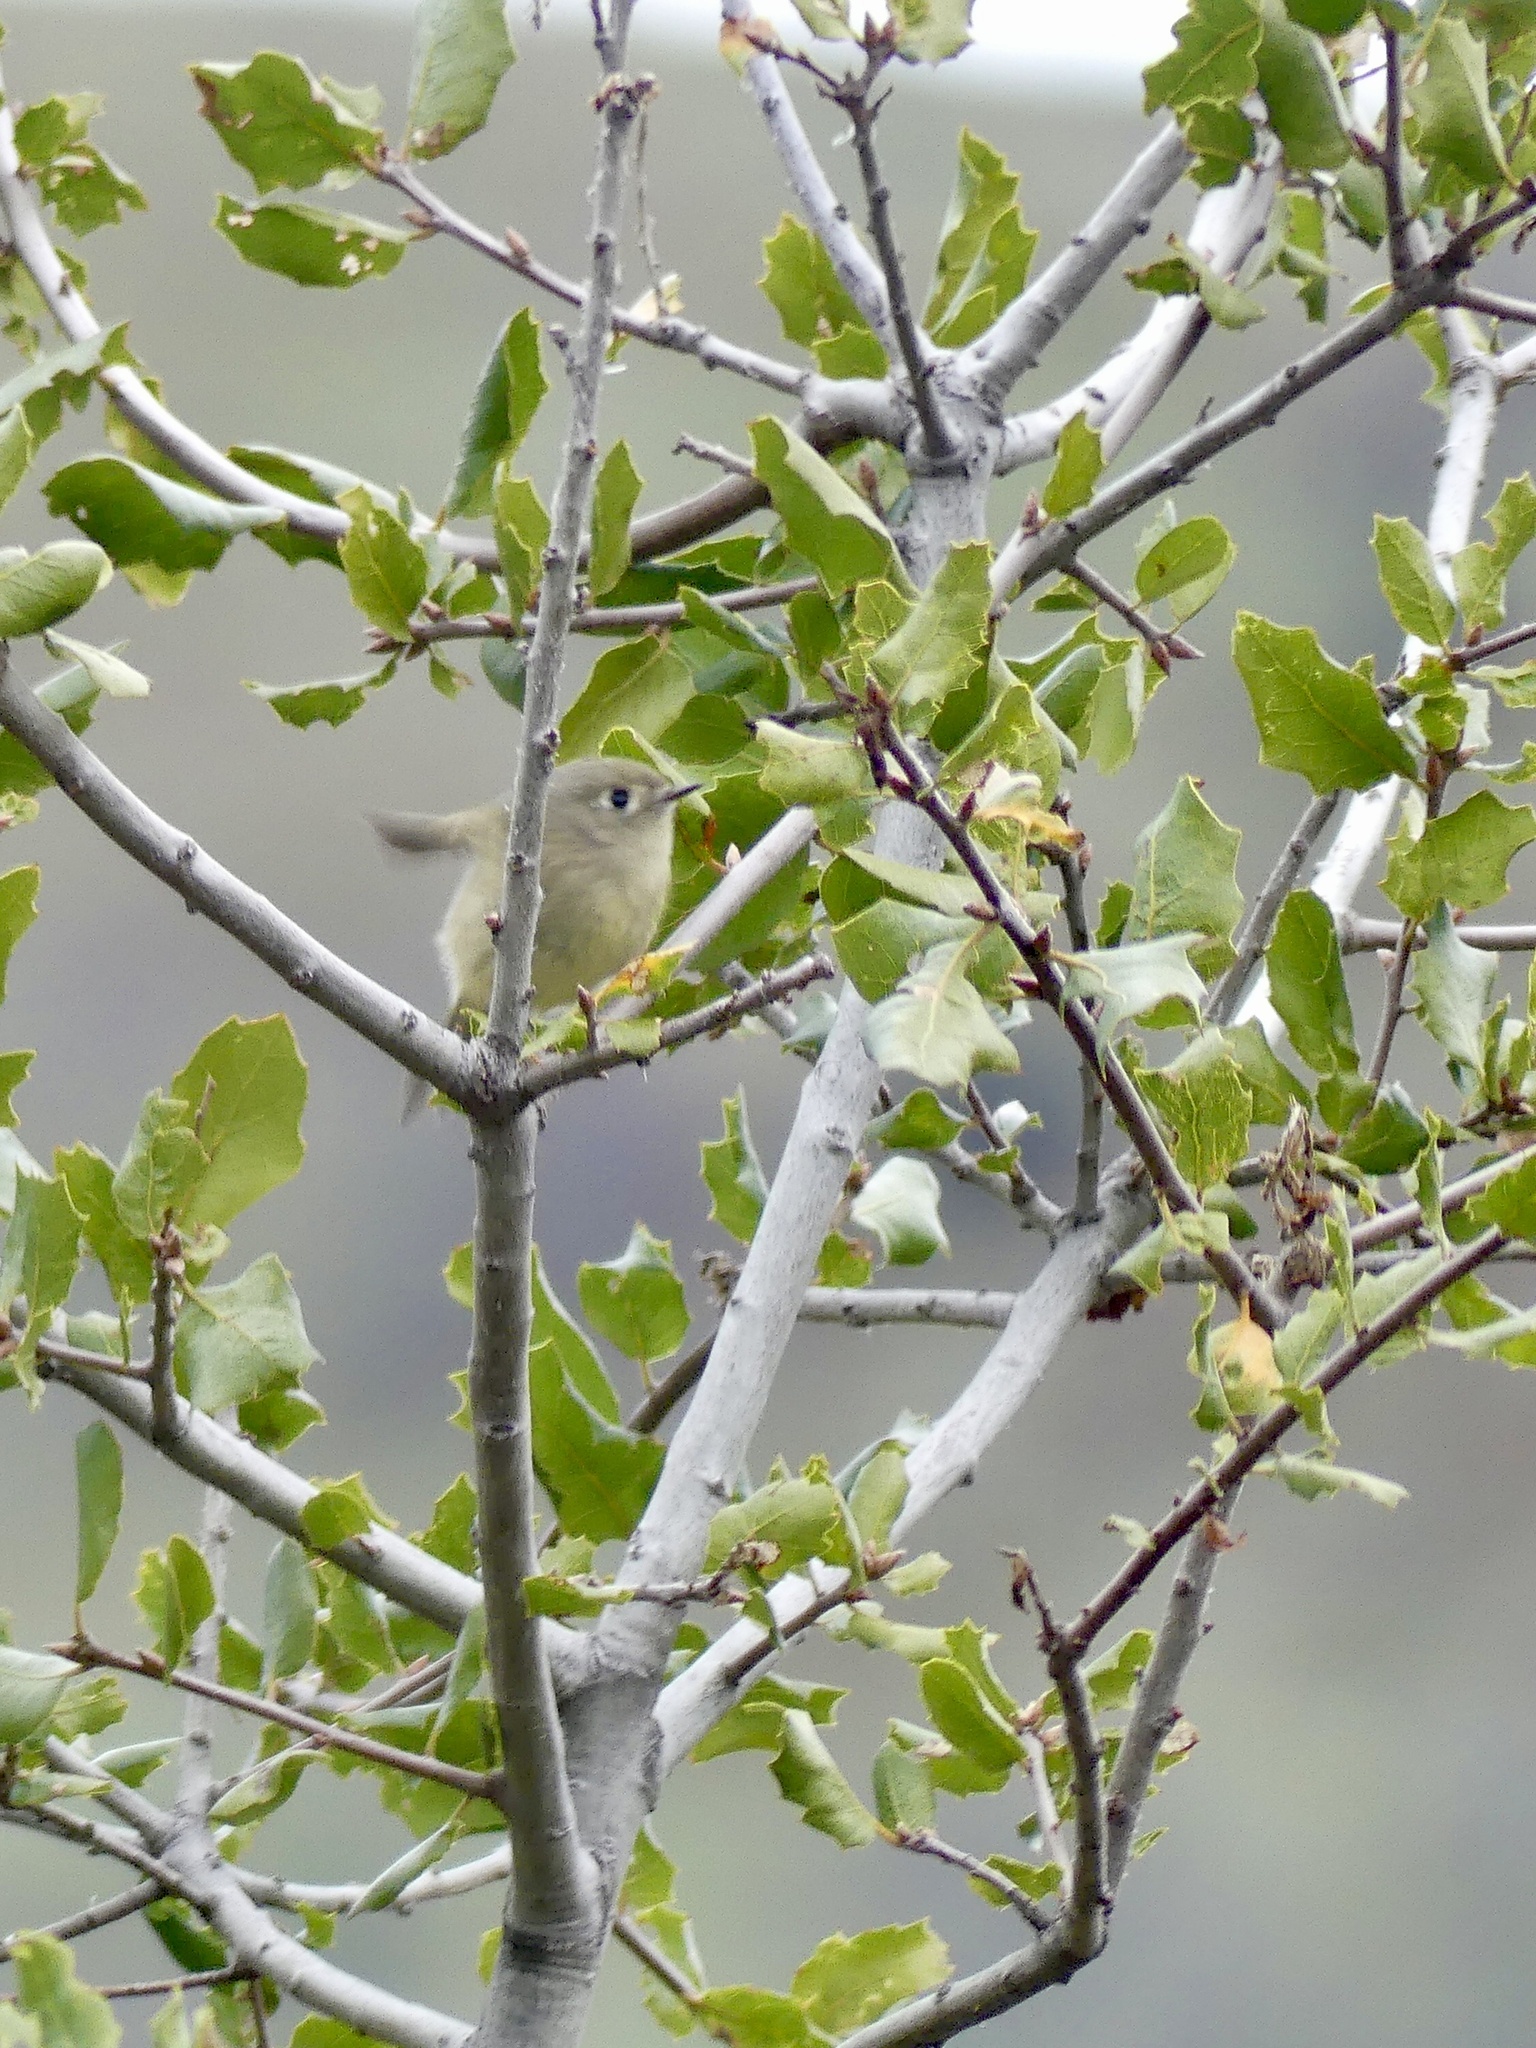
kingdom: Animalia
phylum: Chordata
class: Aves
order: Passeriformes
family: Regulidae
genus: Regulus
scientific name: Regulus calendula
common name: Ruby-crowned kinglet
